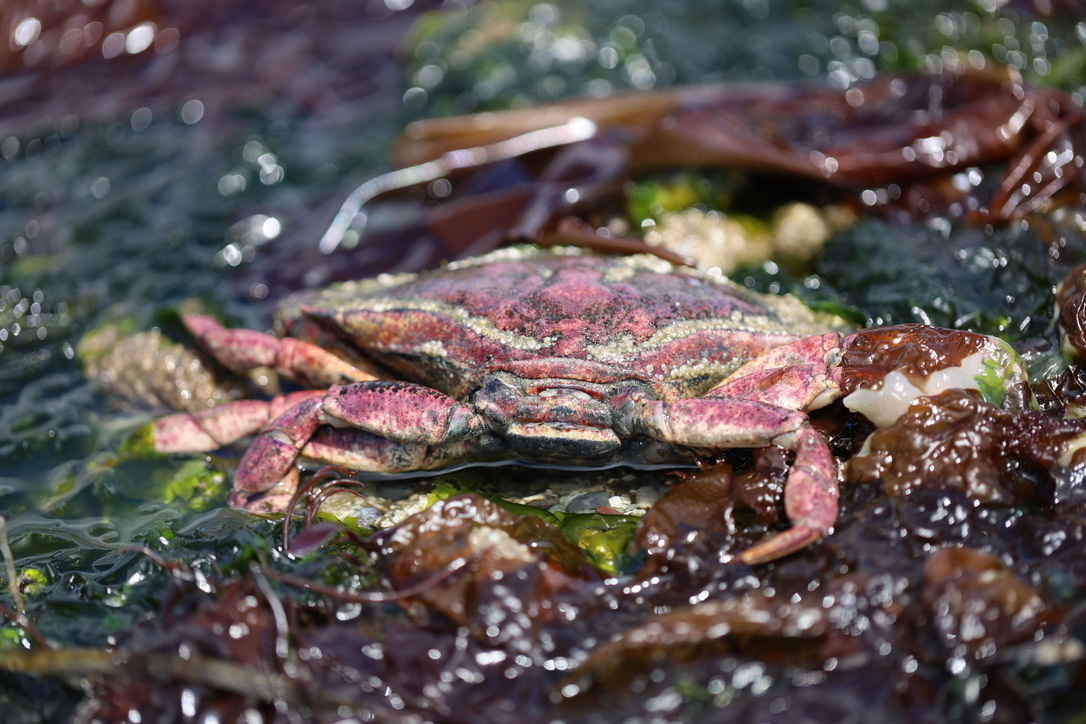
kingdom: Animalia
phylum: Arthropoda
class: Malacostraca
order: Decapoda
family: Cancridae
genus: Cancer
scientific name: Cancer productus
